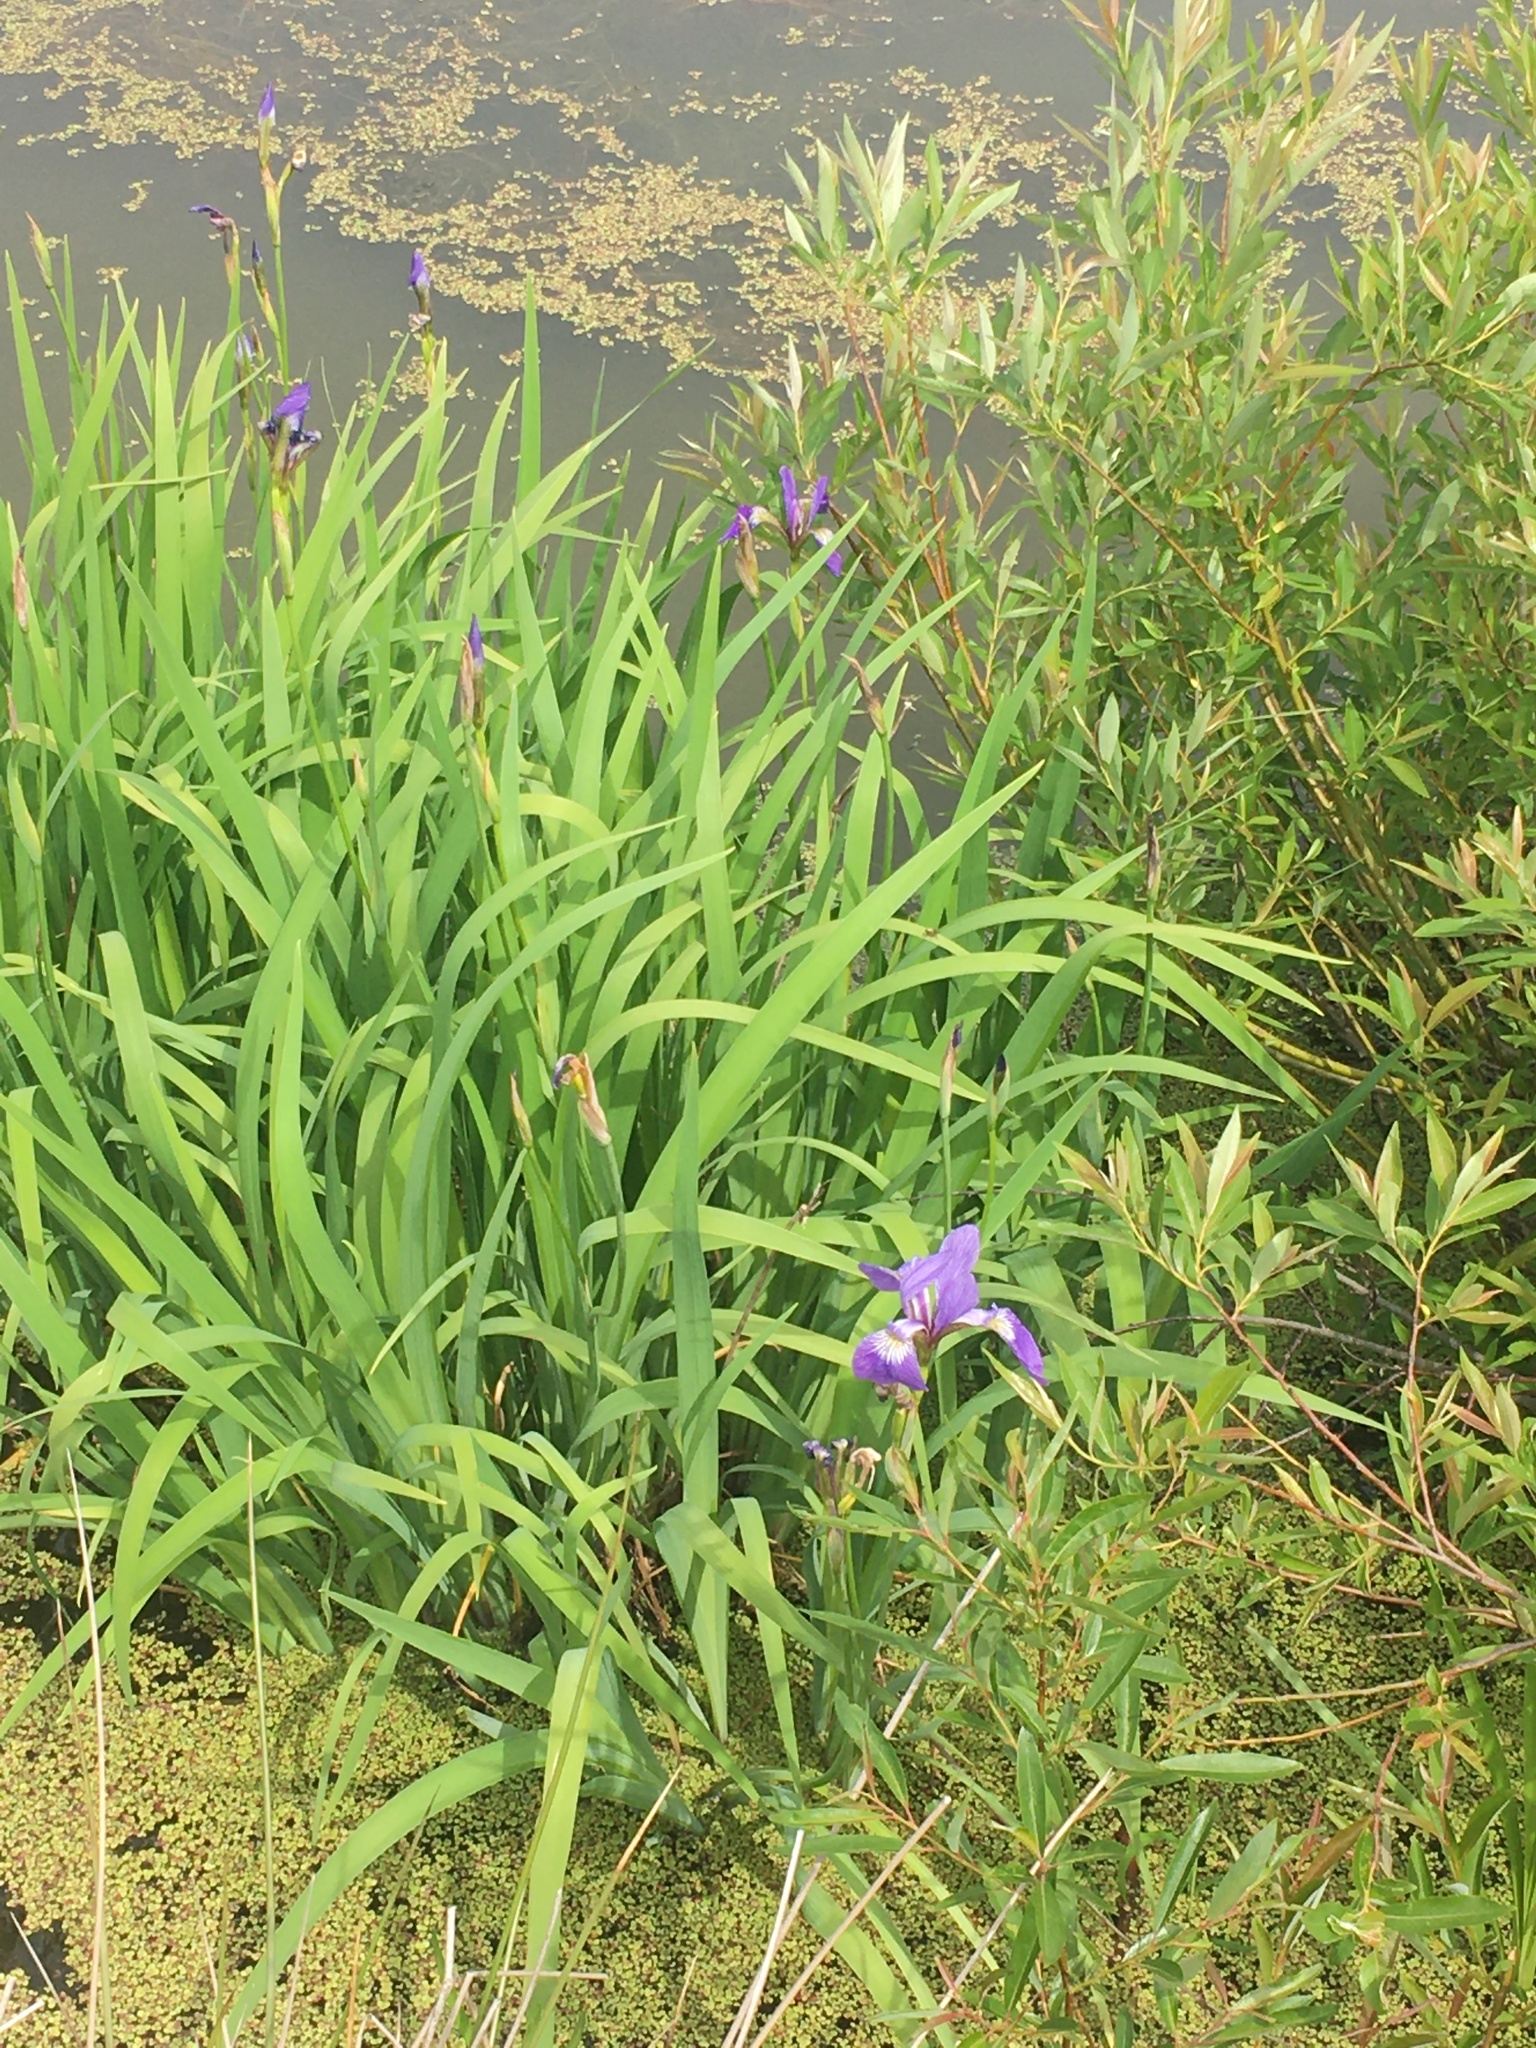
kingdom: Plantae
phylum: Tracheophyta
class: Liliopsida
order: Asparagales
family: Iridaceae
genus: Iris
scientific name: Iris versicolor
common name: Purple iris
